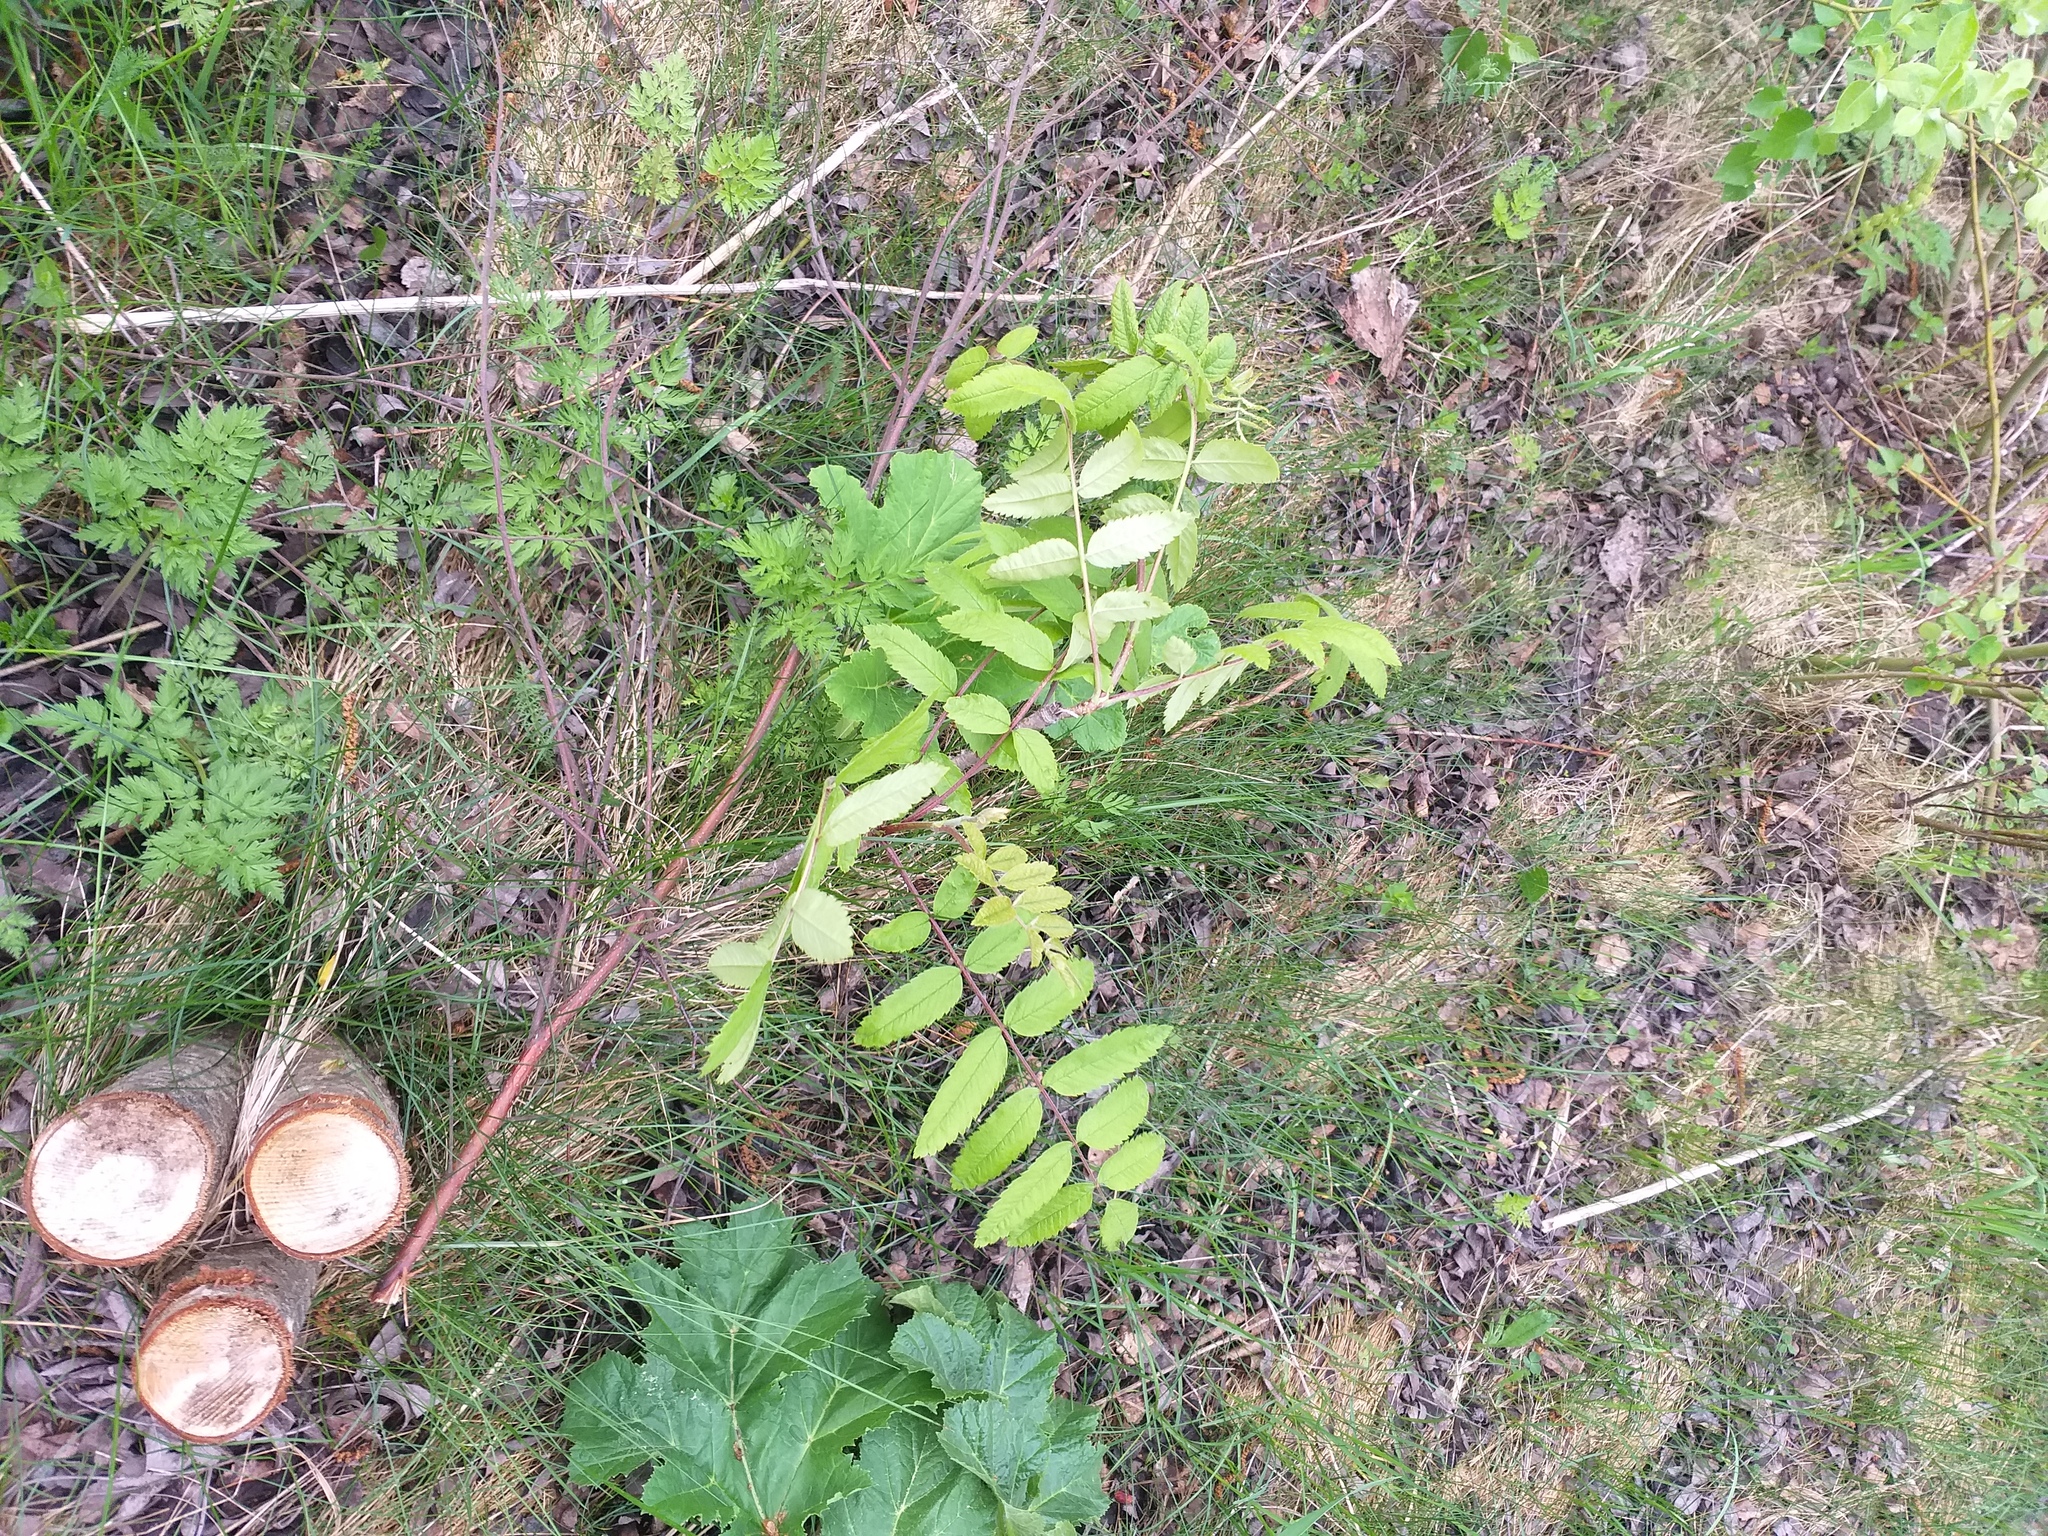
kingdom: Plantae
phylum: Tracheophyta
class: Magnoliopsida
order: Rosales
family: Rosaceae
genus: Sorbus
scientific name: Sorbus aucuparia
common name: Rowan
